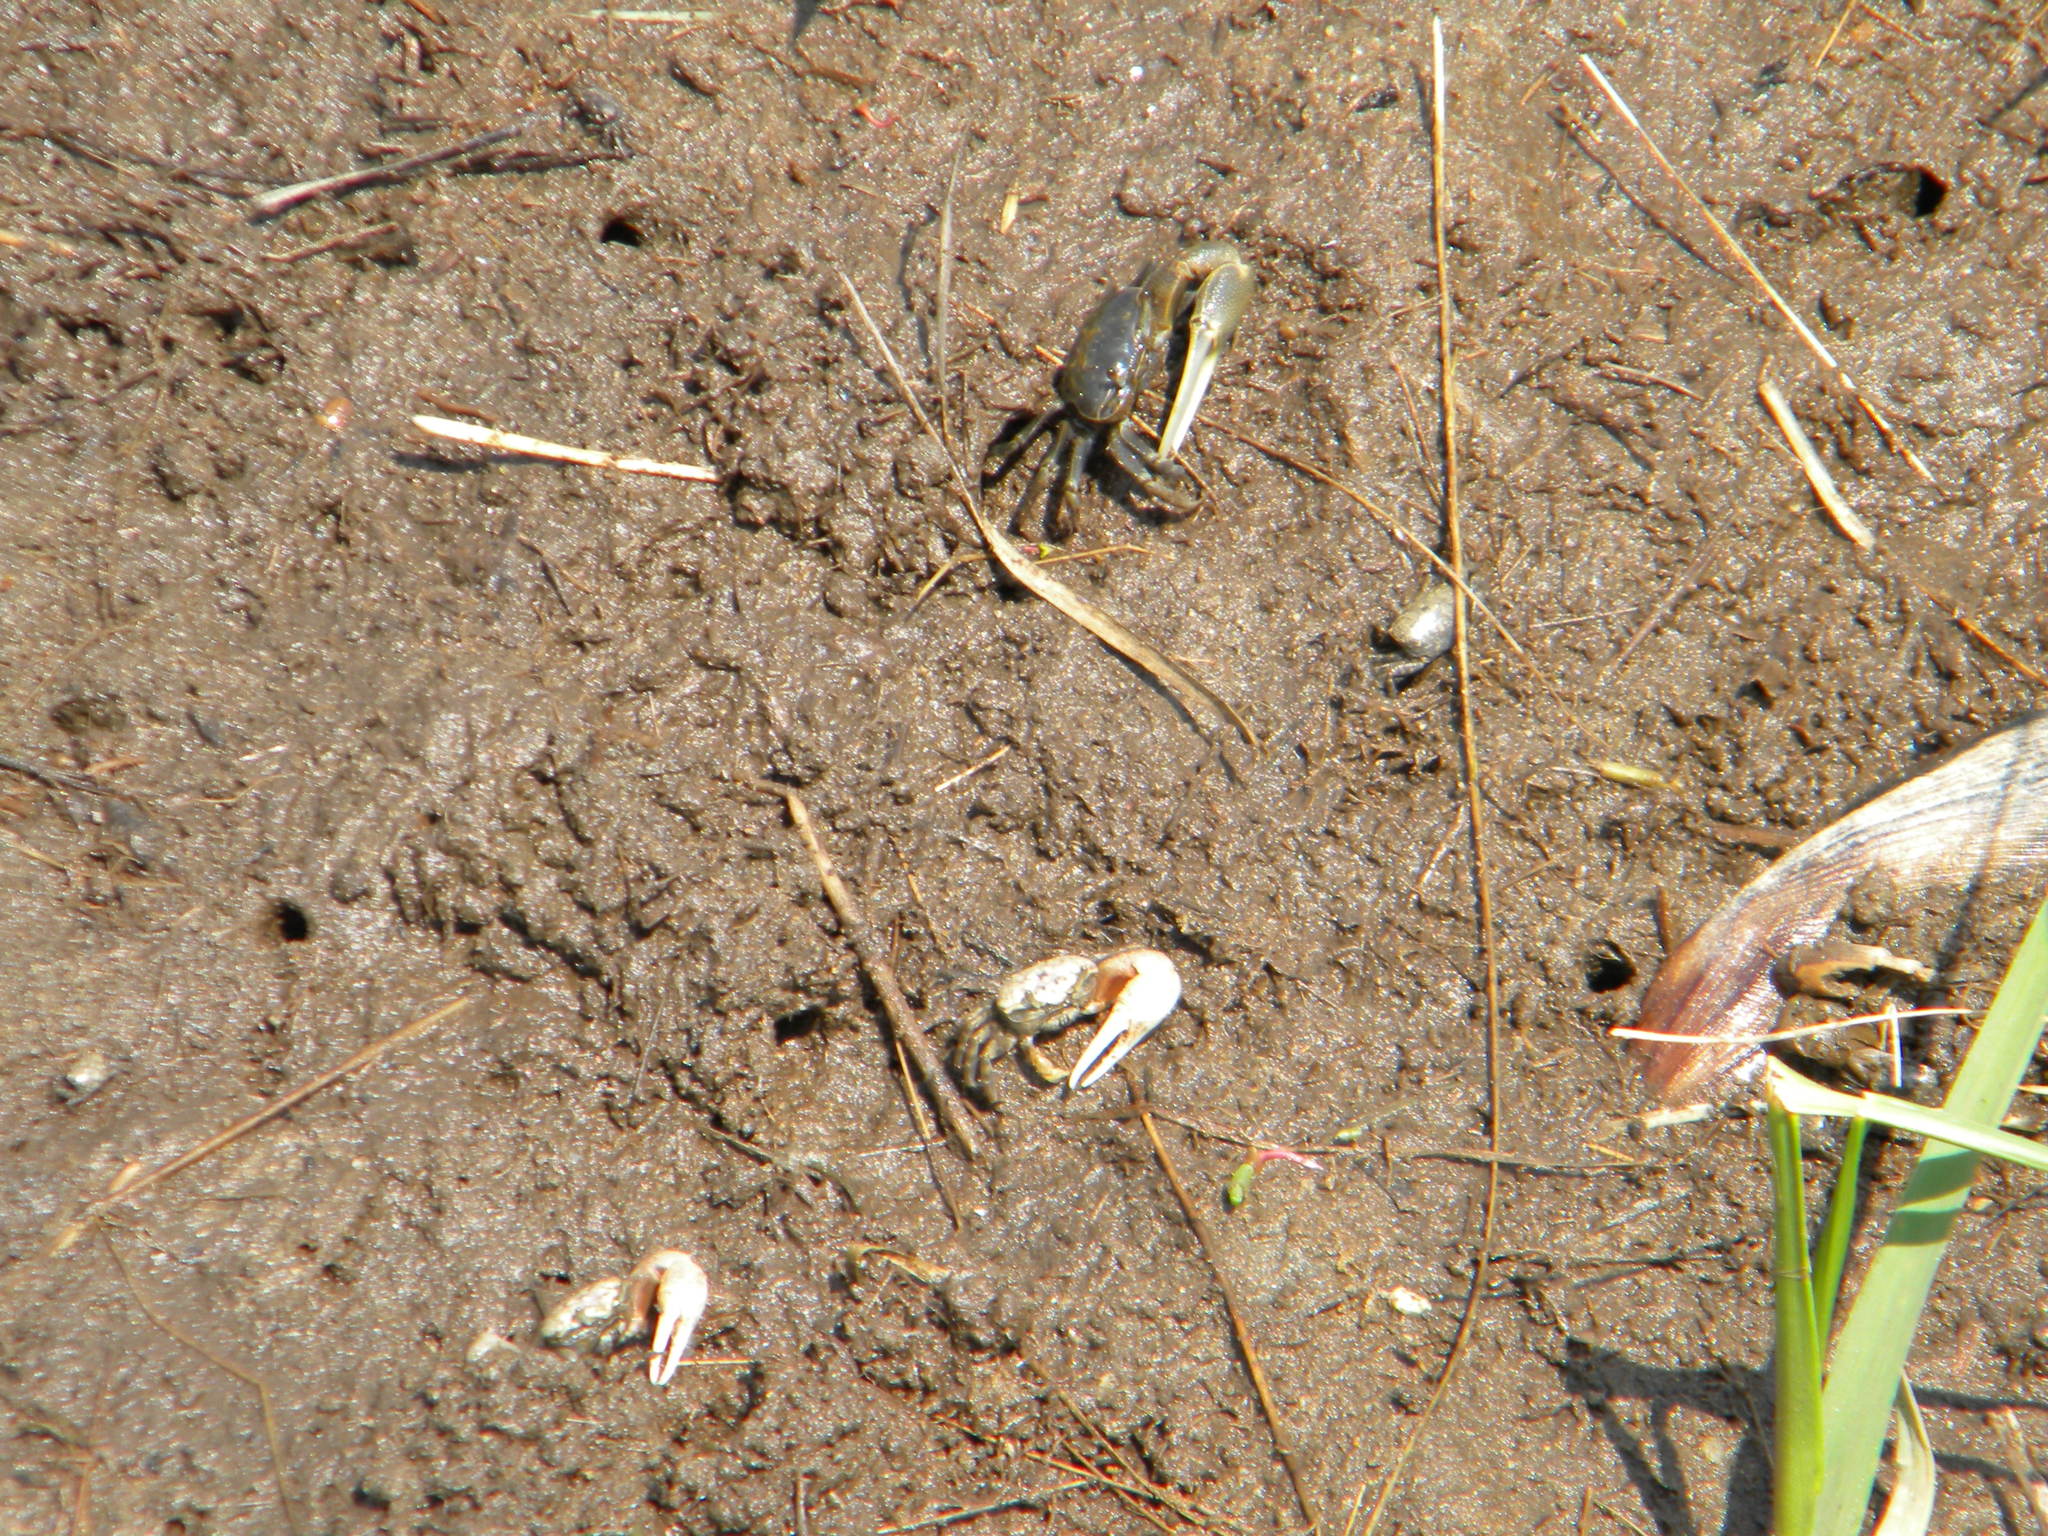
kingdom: Animalia
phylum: Arthropoda
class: Malacostraca
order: Decapoda
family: Ocypodidae
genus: Leptuca
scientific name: Leptuca pugilator
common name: Atlantic sand fiddler crab
